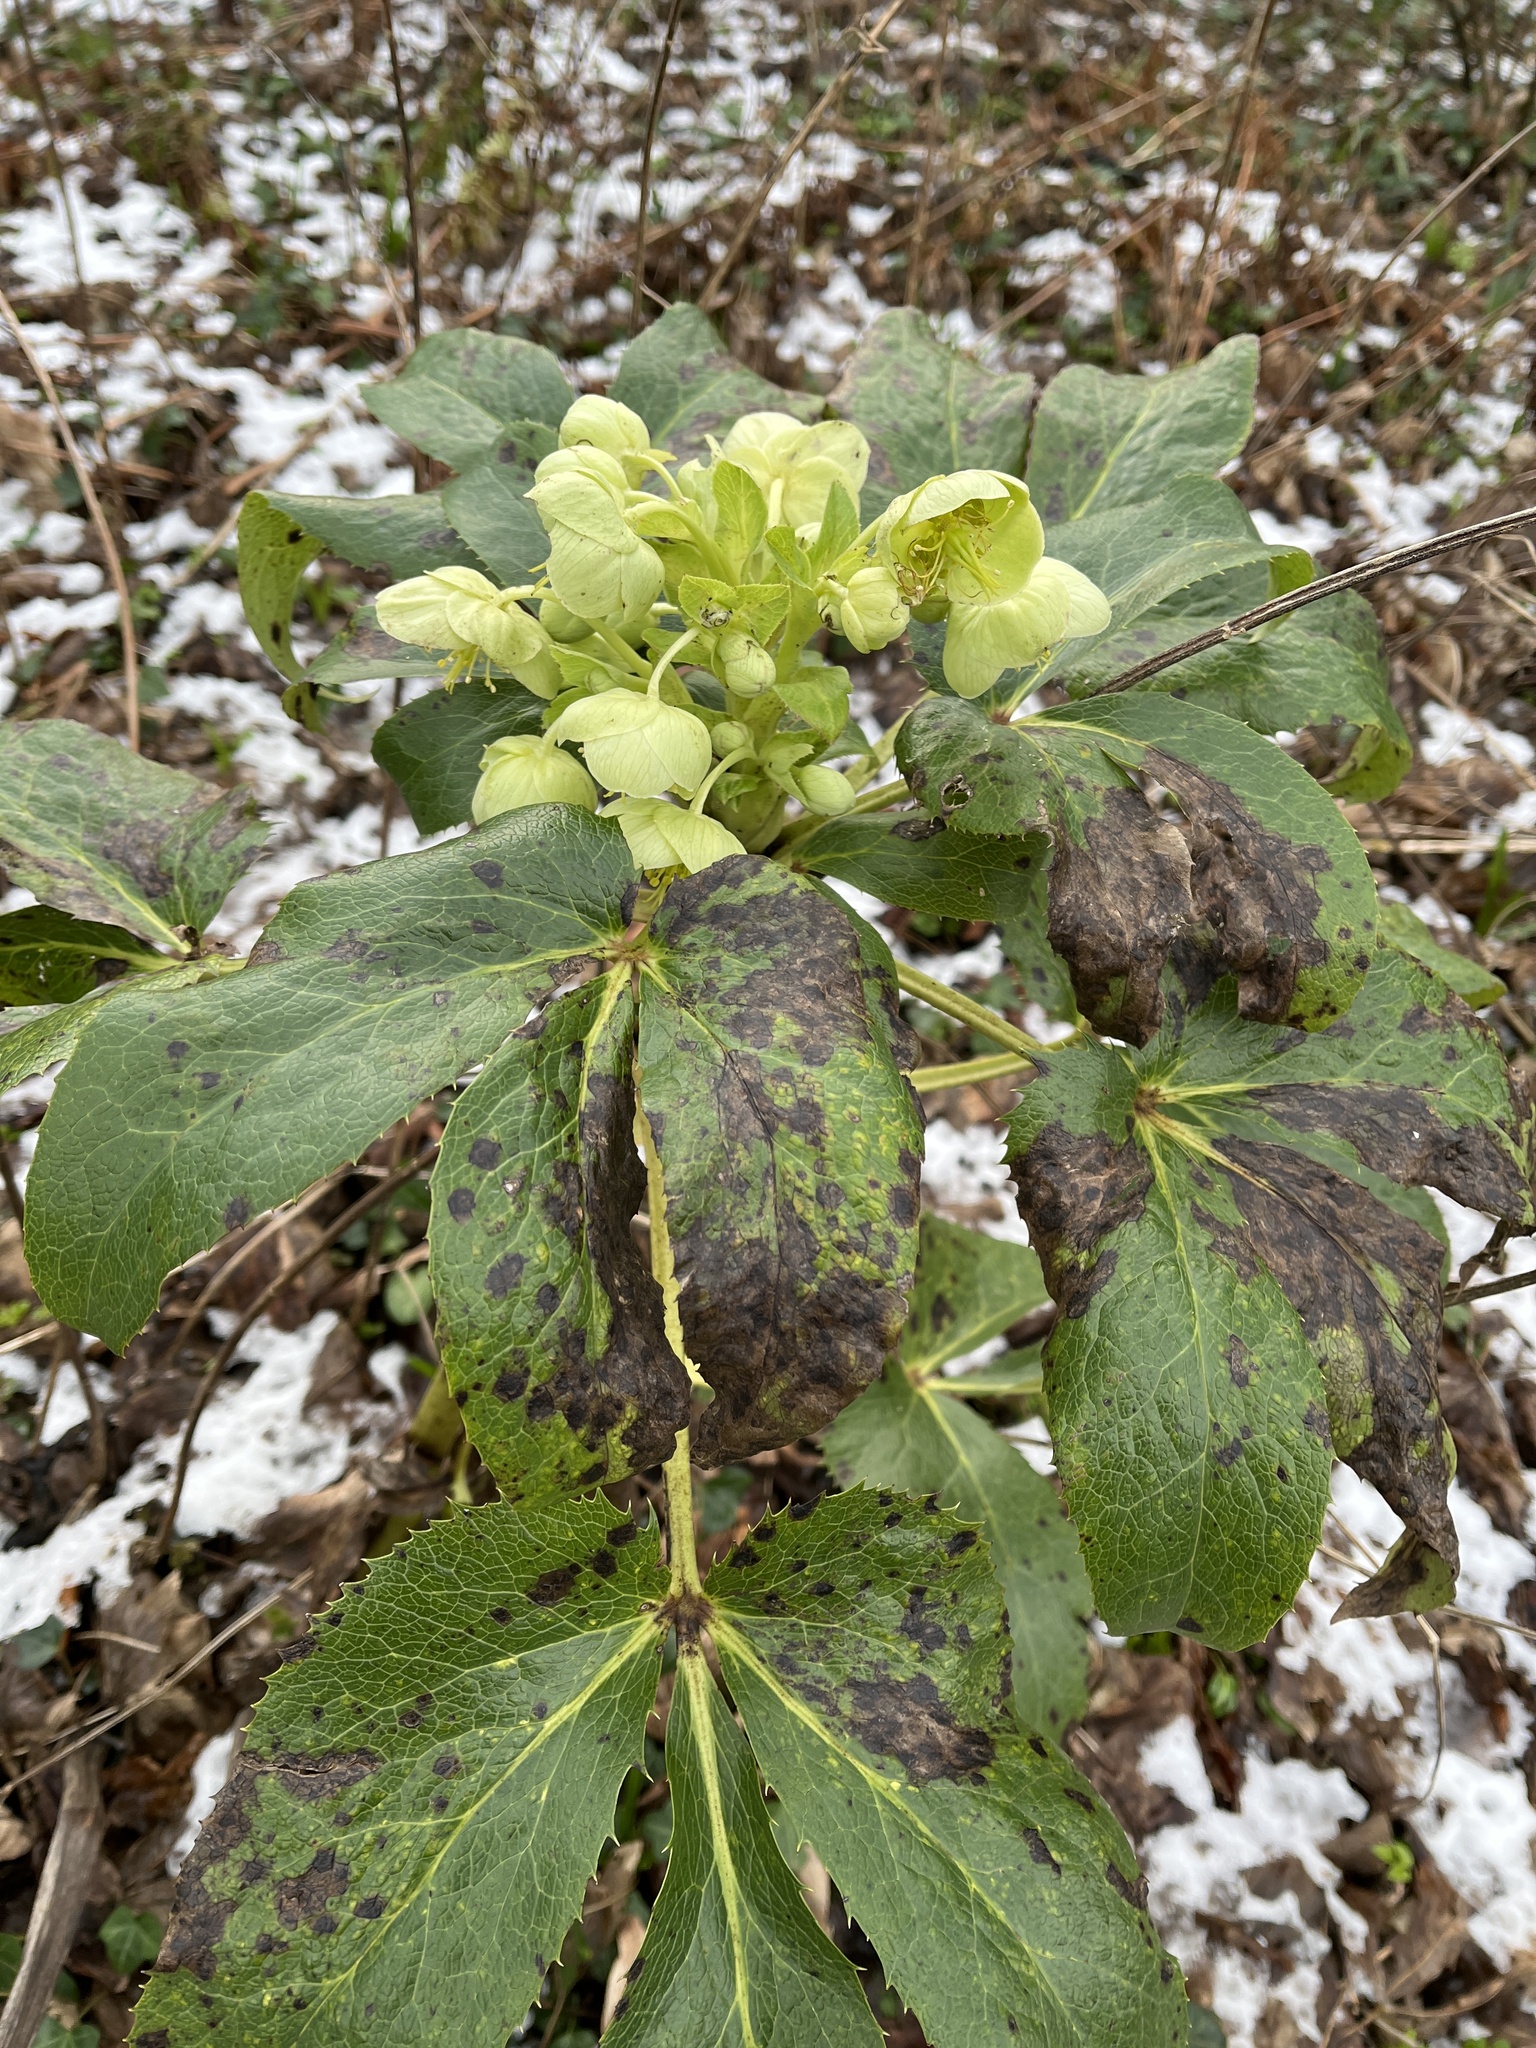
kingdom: Plantae
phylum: Tracheophyta
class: Magnoliopsida
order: Ranunculales
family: Ranunculaceae
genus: Helleborus
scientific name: Helleborus argutifolius
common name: Corsican hellebore
